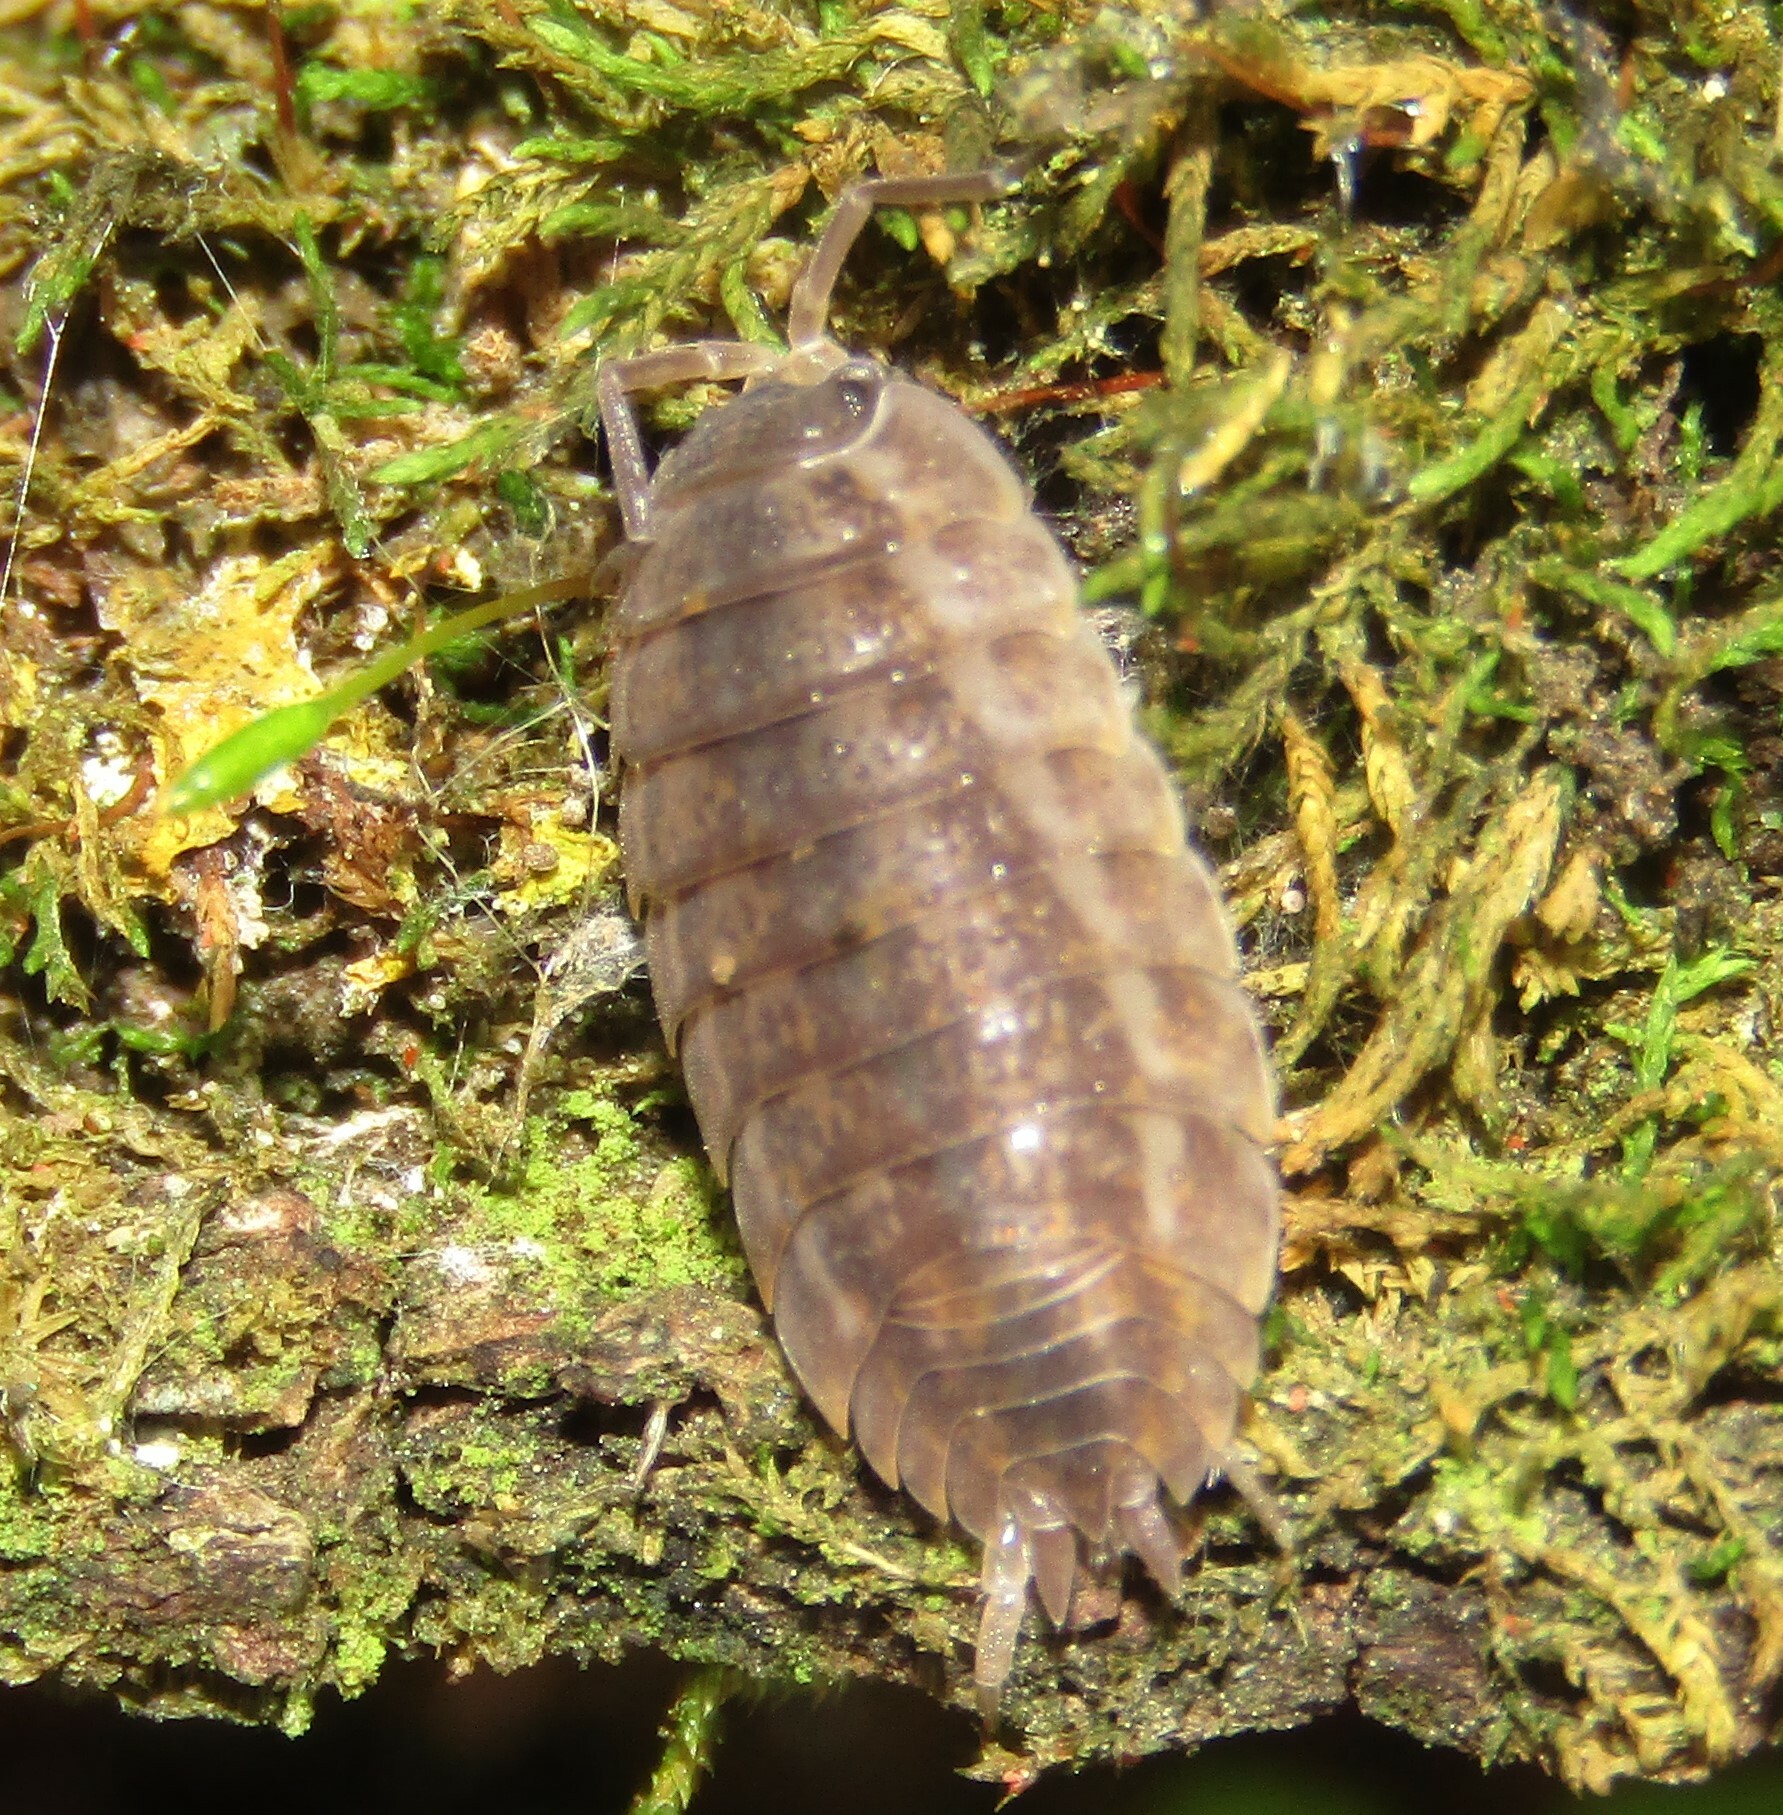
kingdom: Animalia
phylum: Arthropoda
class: Malacostraca
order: Isopoda
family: Trachelipodidae
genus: Trachelipus
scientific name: Trachelipus rathkii
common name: Isopod
